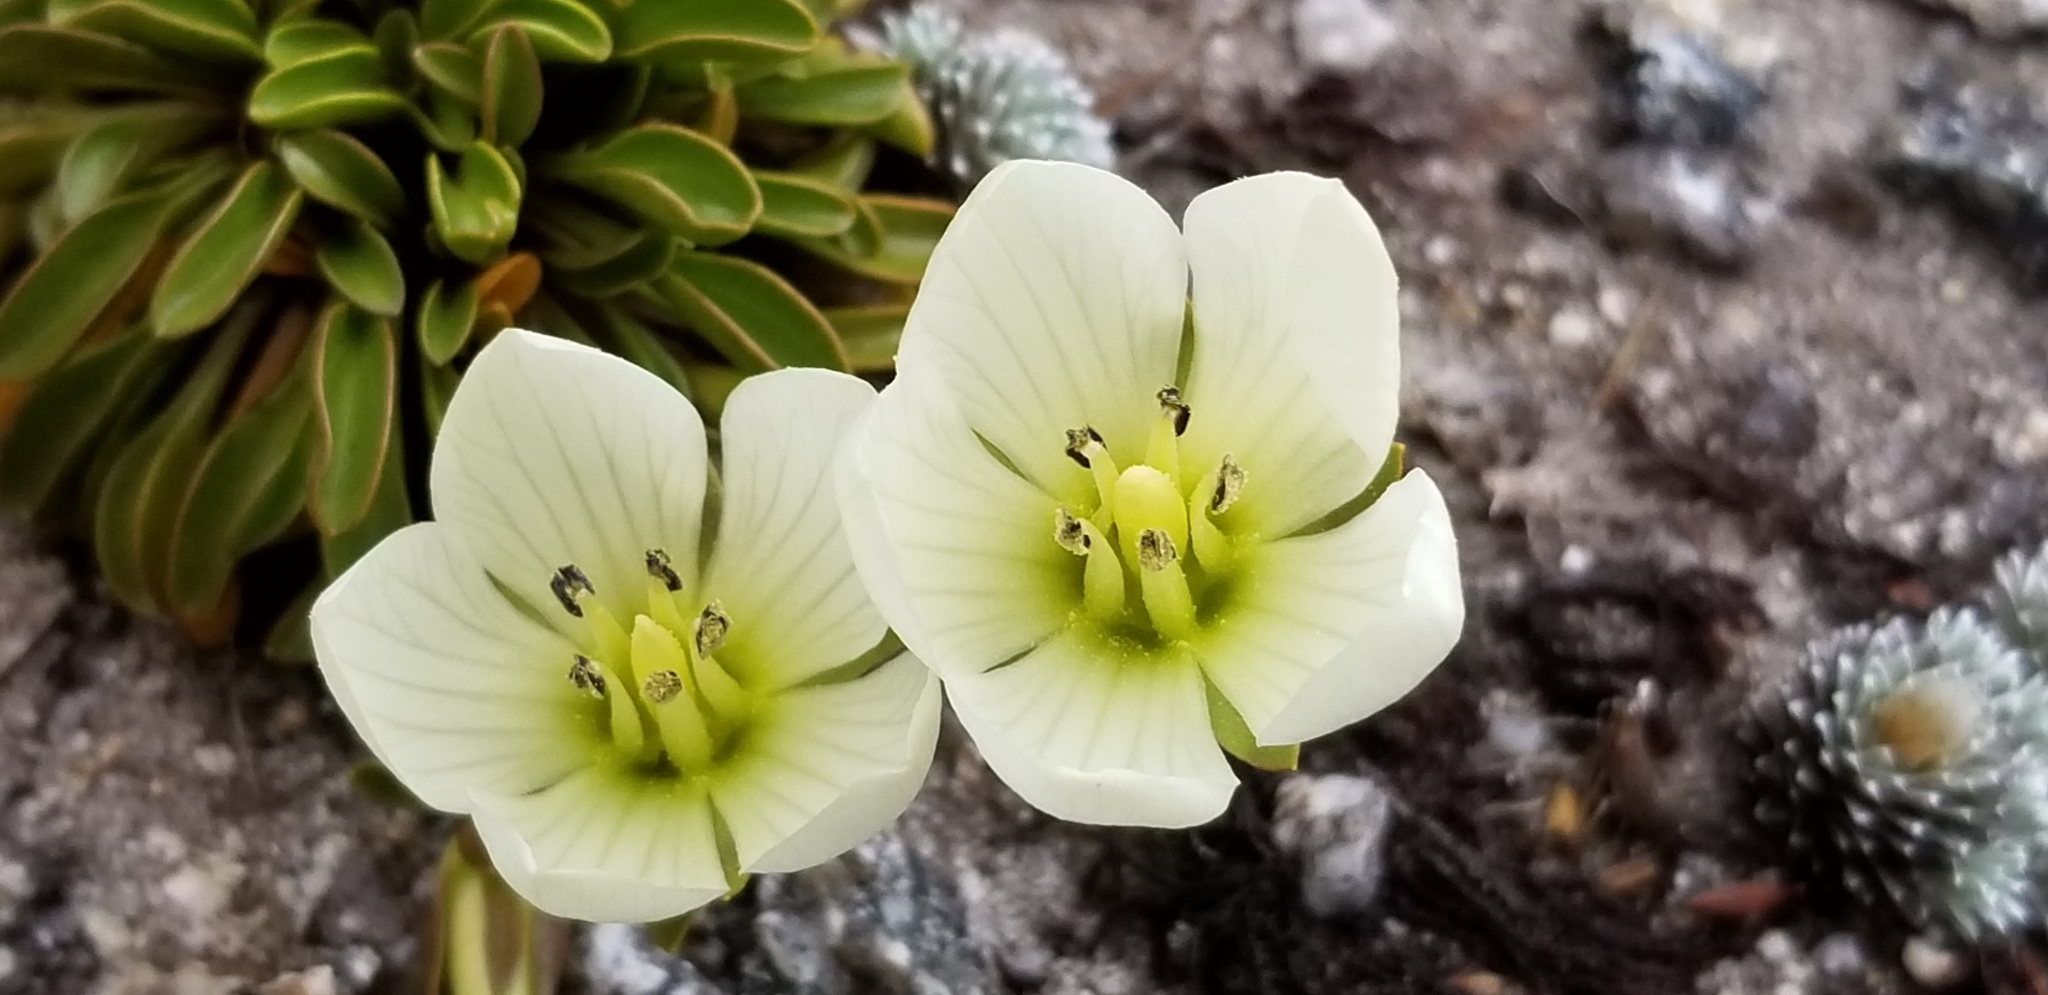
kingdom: Plantae
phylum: Tracheophyta
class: Magnoliopsida
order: Gentianales
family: Gentianaceae
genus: Gentianella
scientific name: Gentianella bellidifolia
